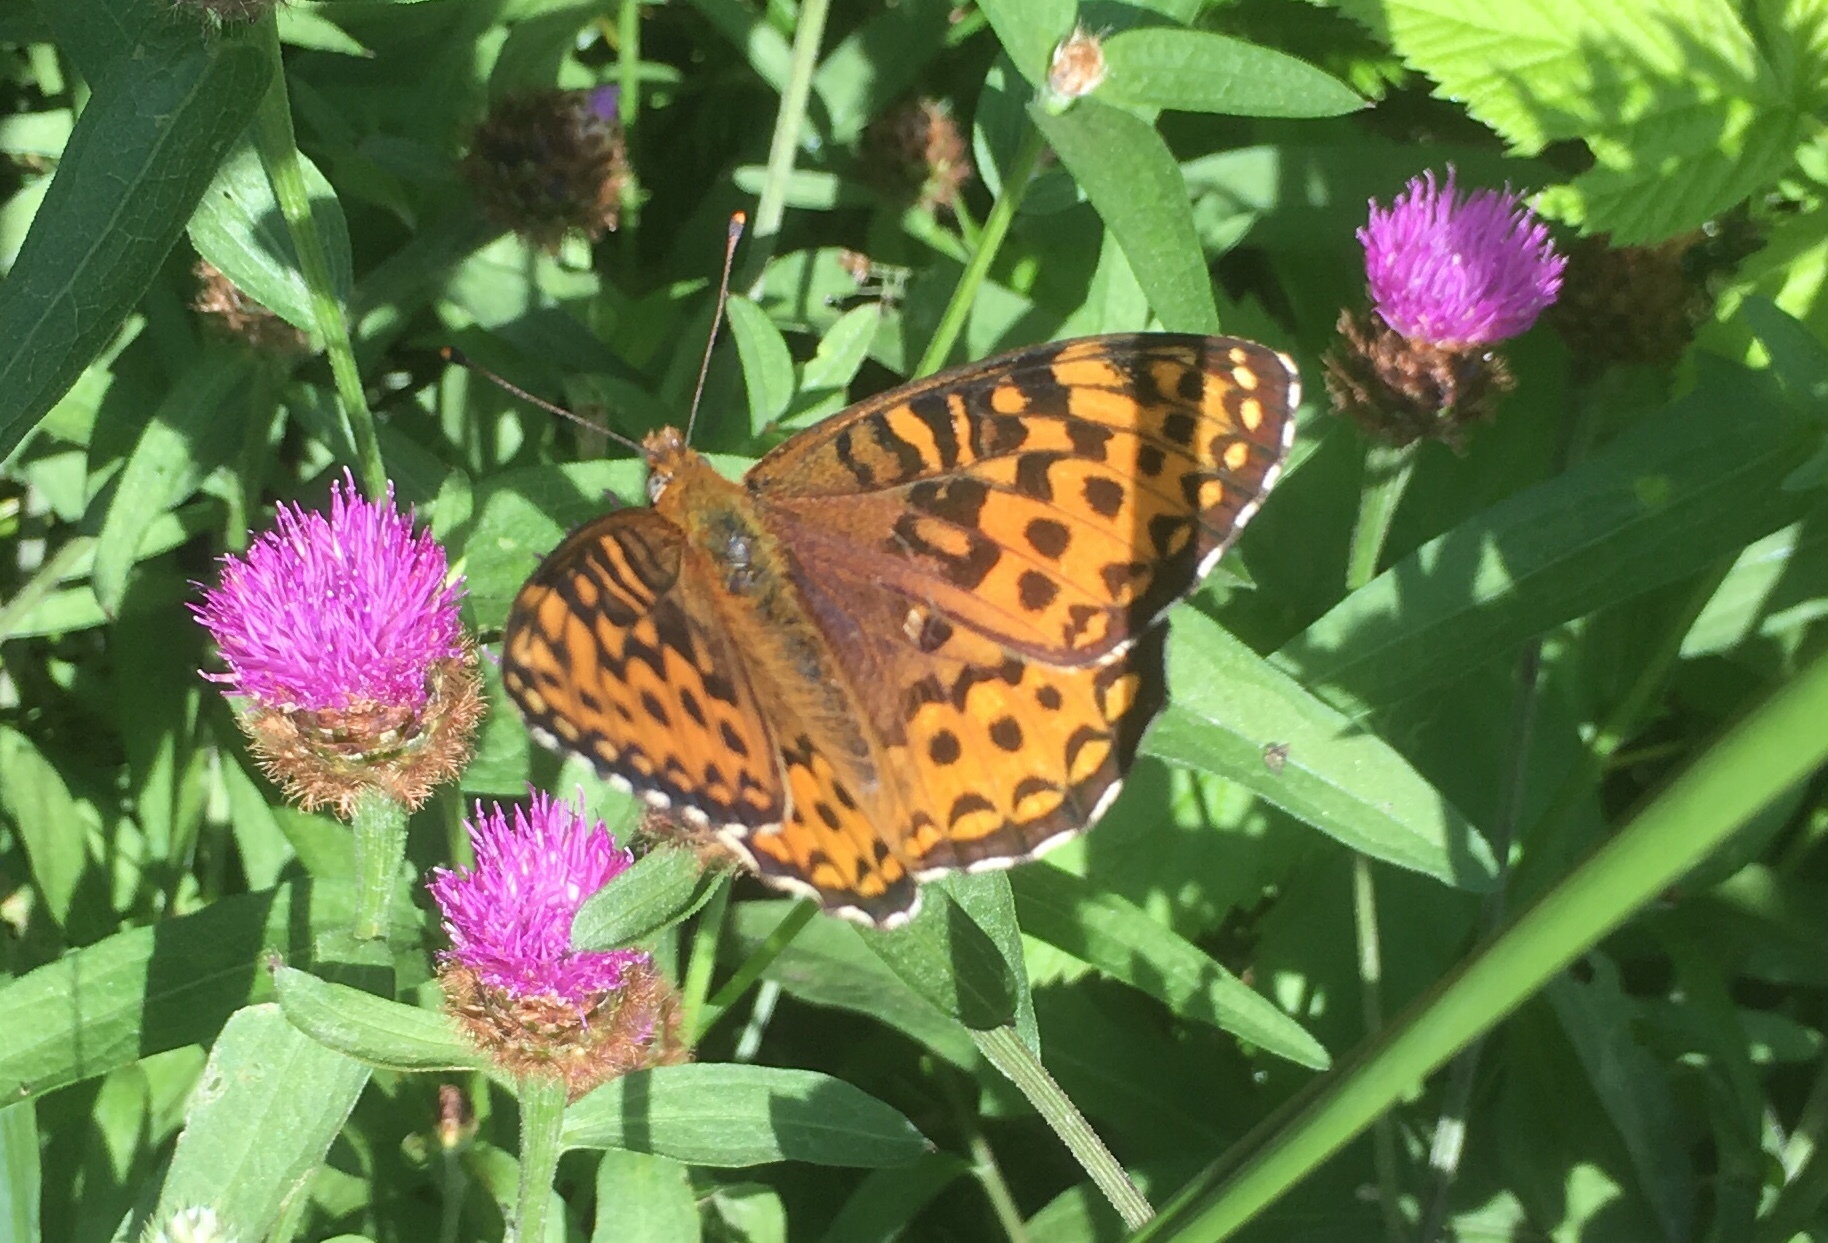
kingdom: Animalia
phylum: Arthropoda
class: Insecta
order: Lepidoptera
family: Nymphalidae
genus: Speyeria
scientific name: Speyeria atlantis
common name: Atlantis fritillary
